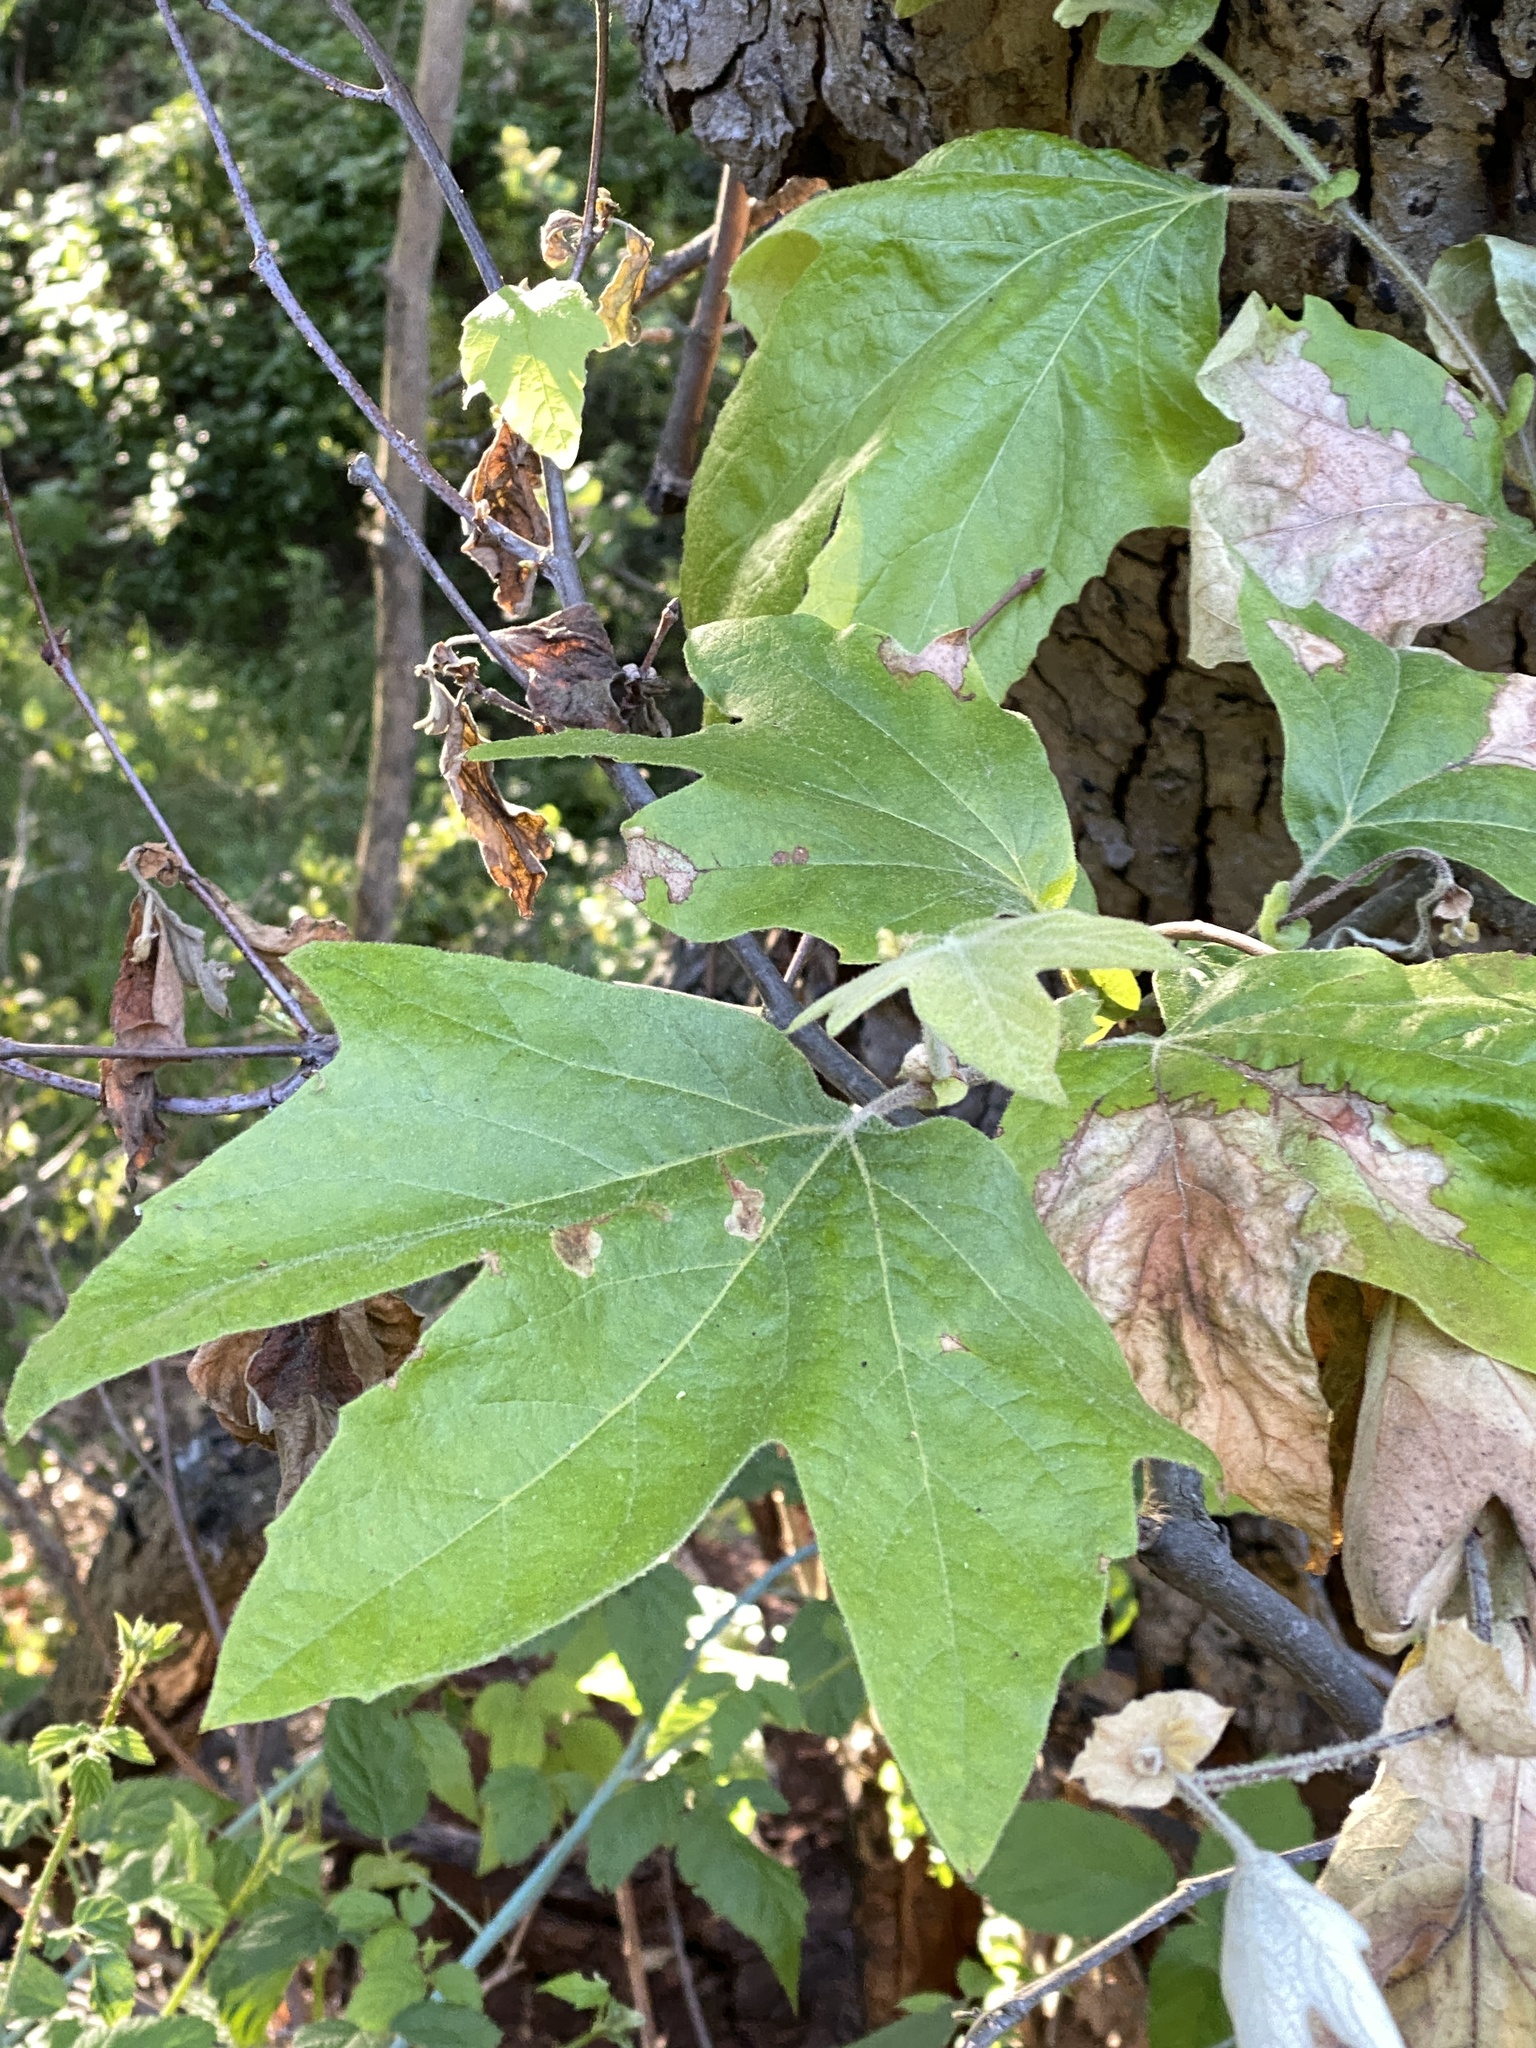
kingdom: Plantae
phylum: Tracheophyta
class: Magnoliopsida
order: Proteales
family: Platanaceae
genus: Platanus
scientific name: Platanus racemosa
